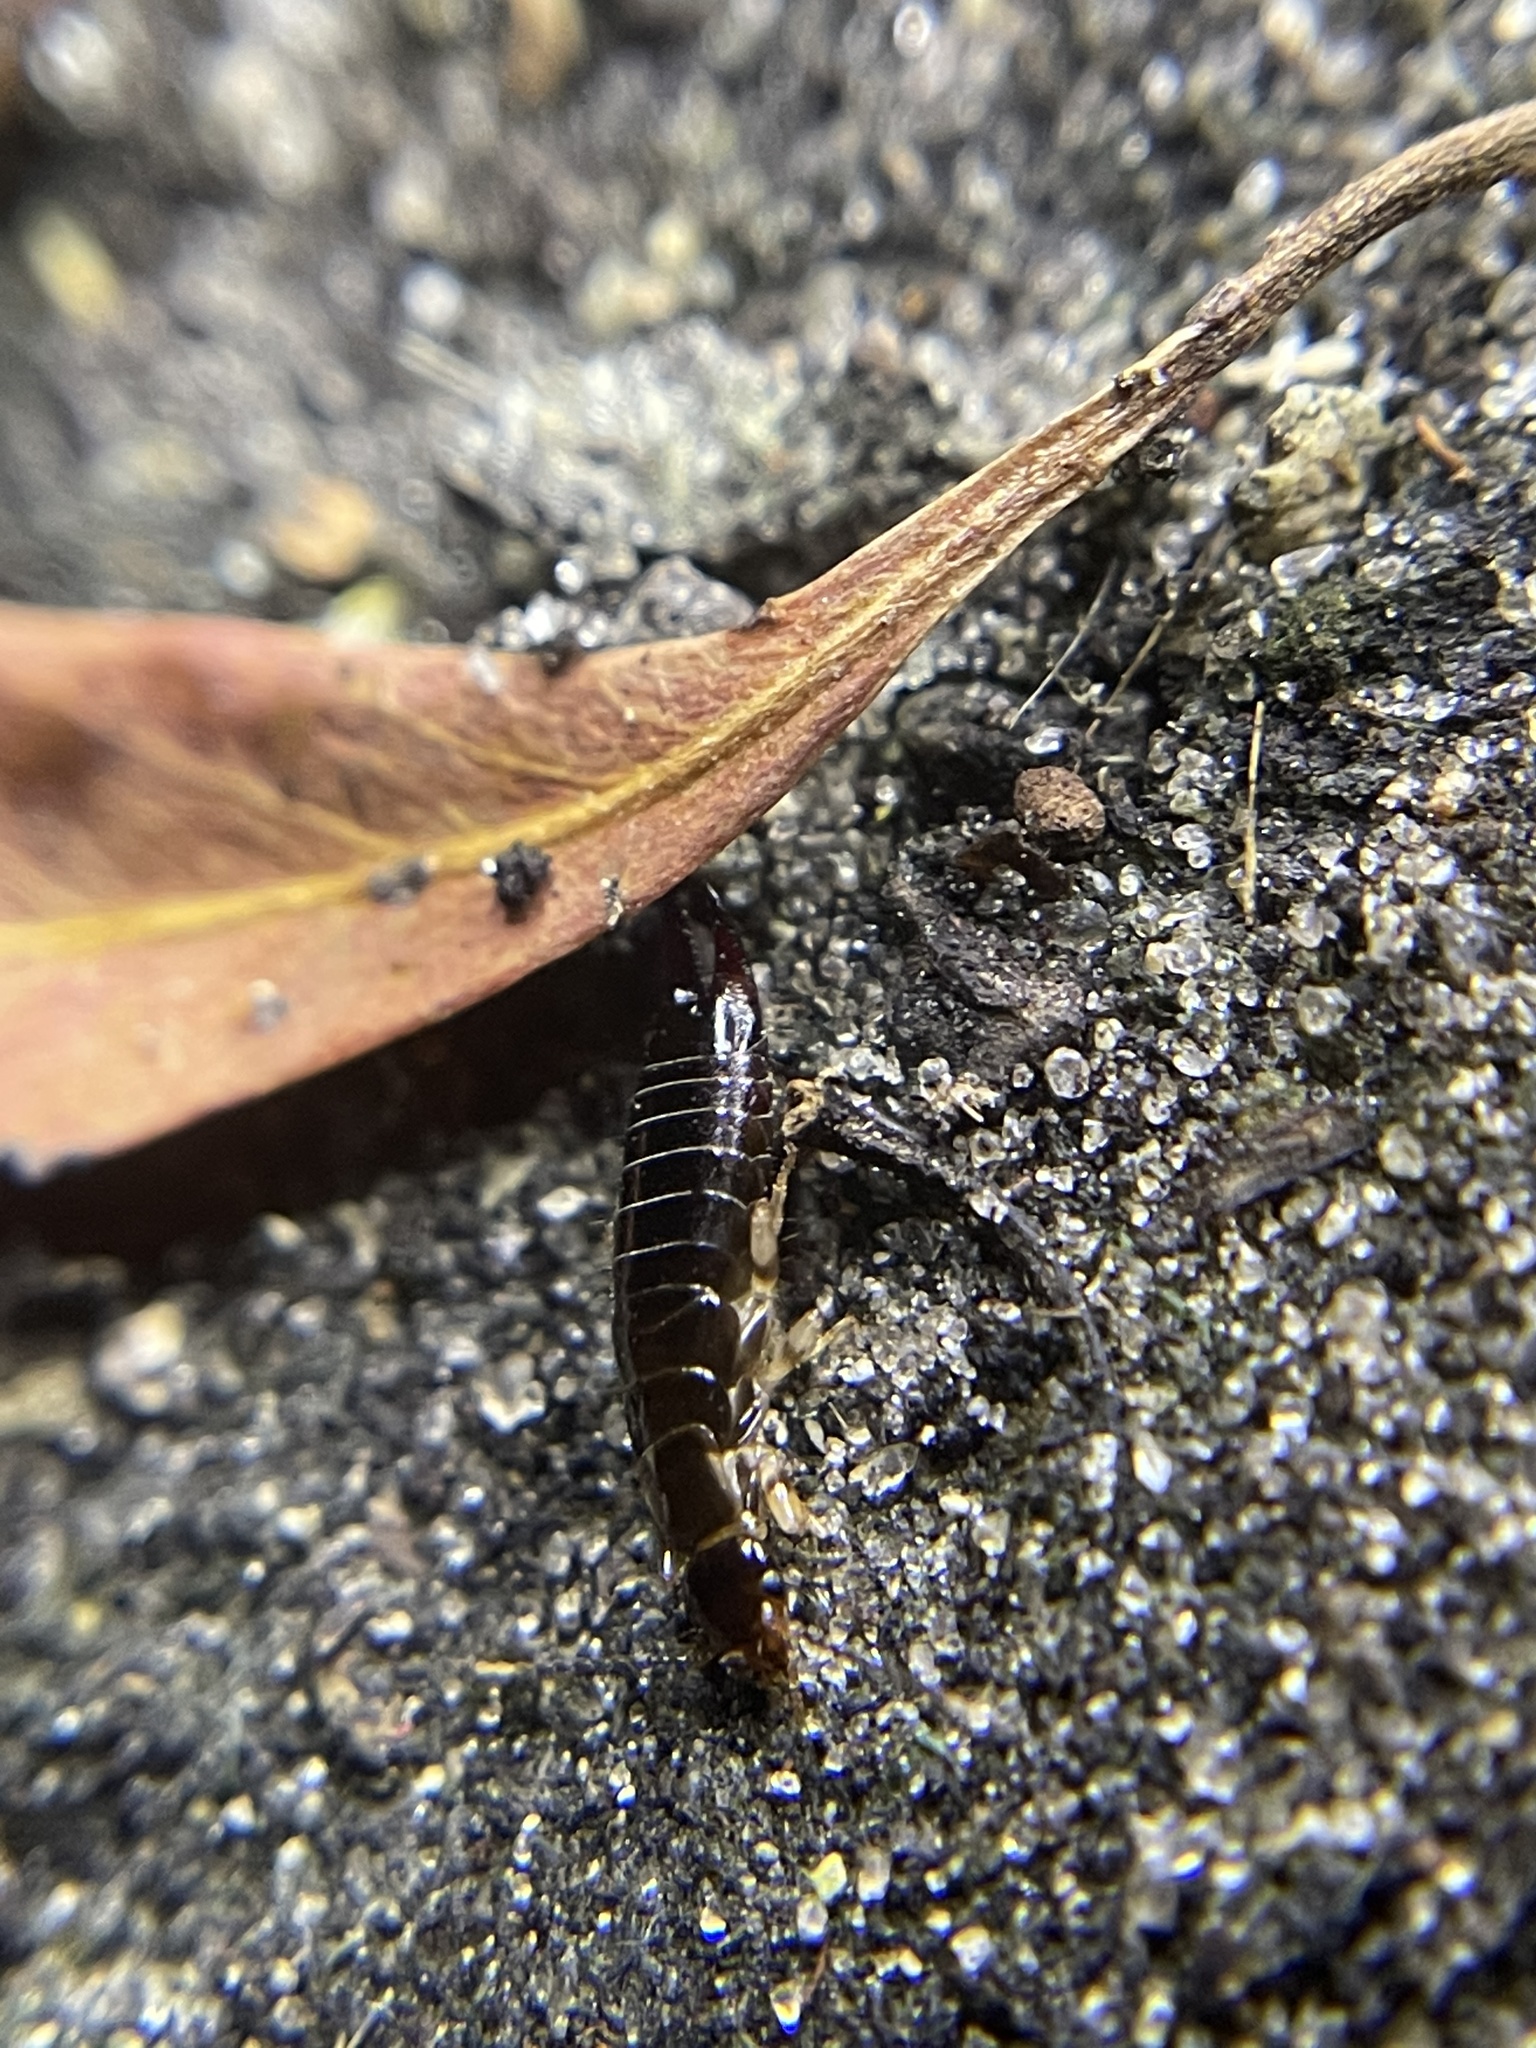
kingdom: Animalia
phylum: Arthropoda
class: Insecta
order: Dermaptera
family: Anisolabididae
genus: Euborellia
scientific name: Euborellia annulata
